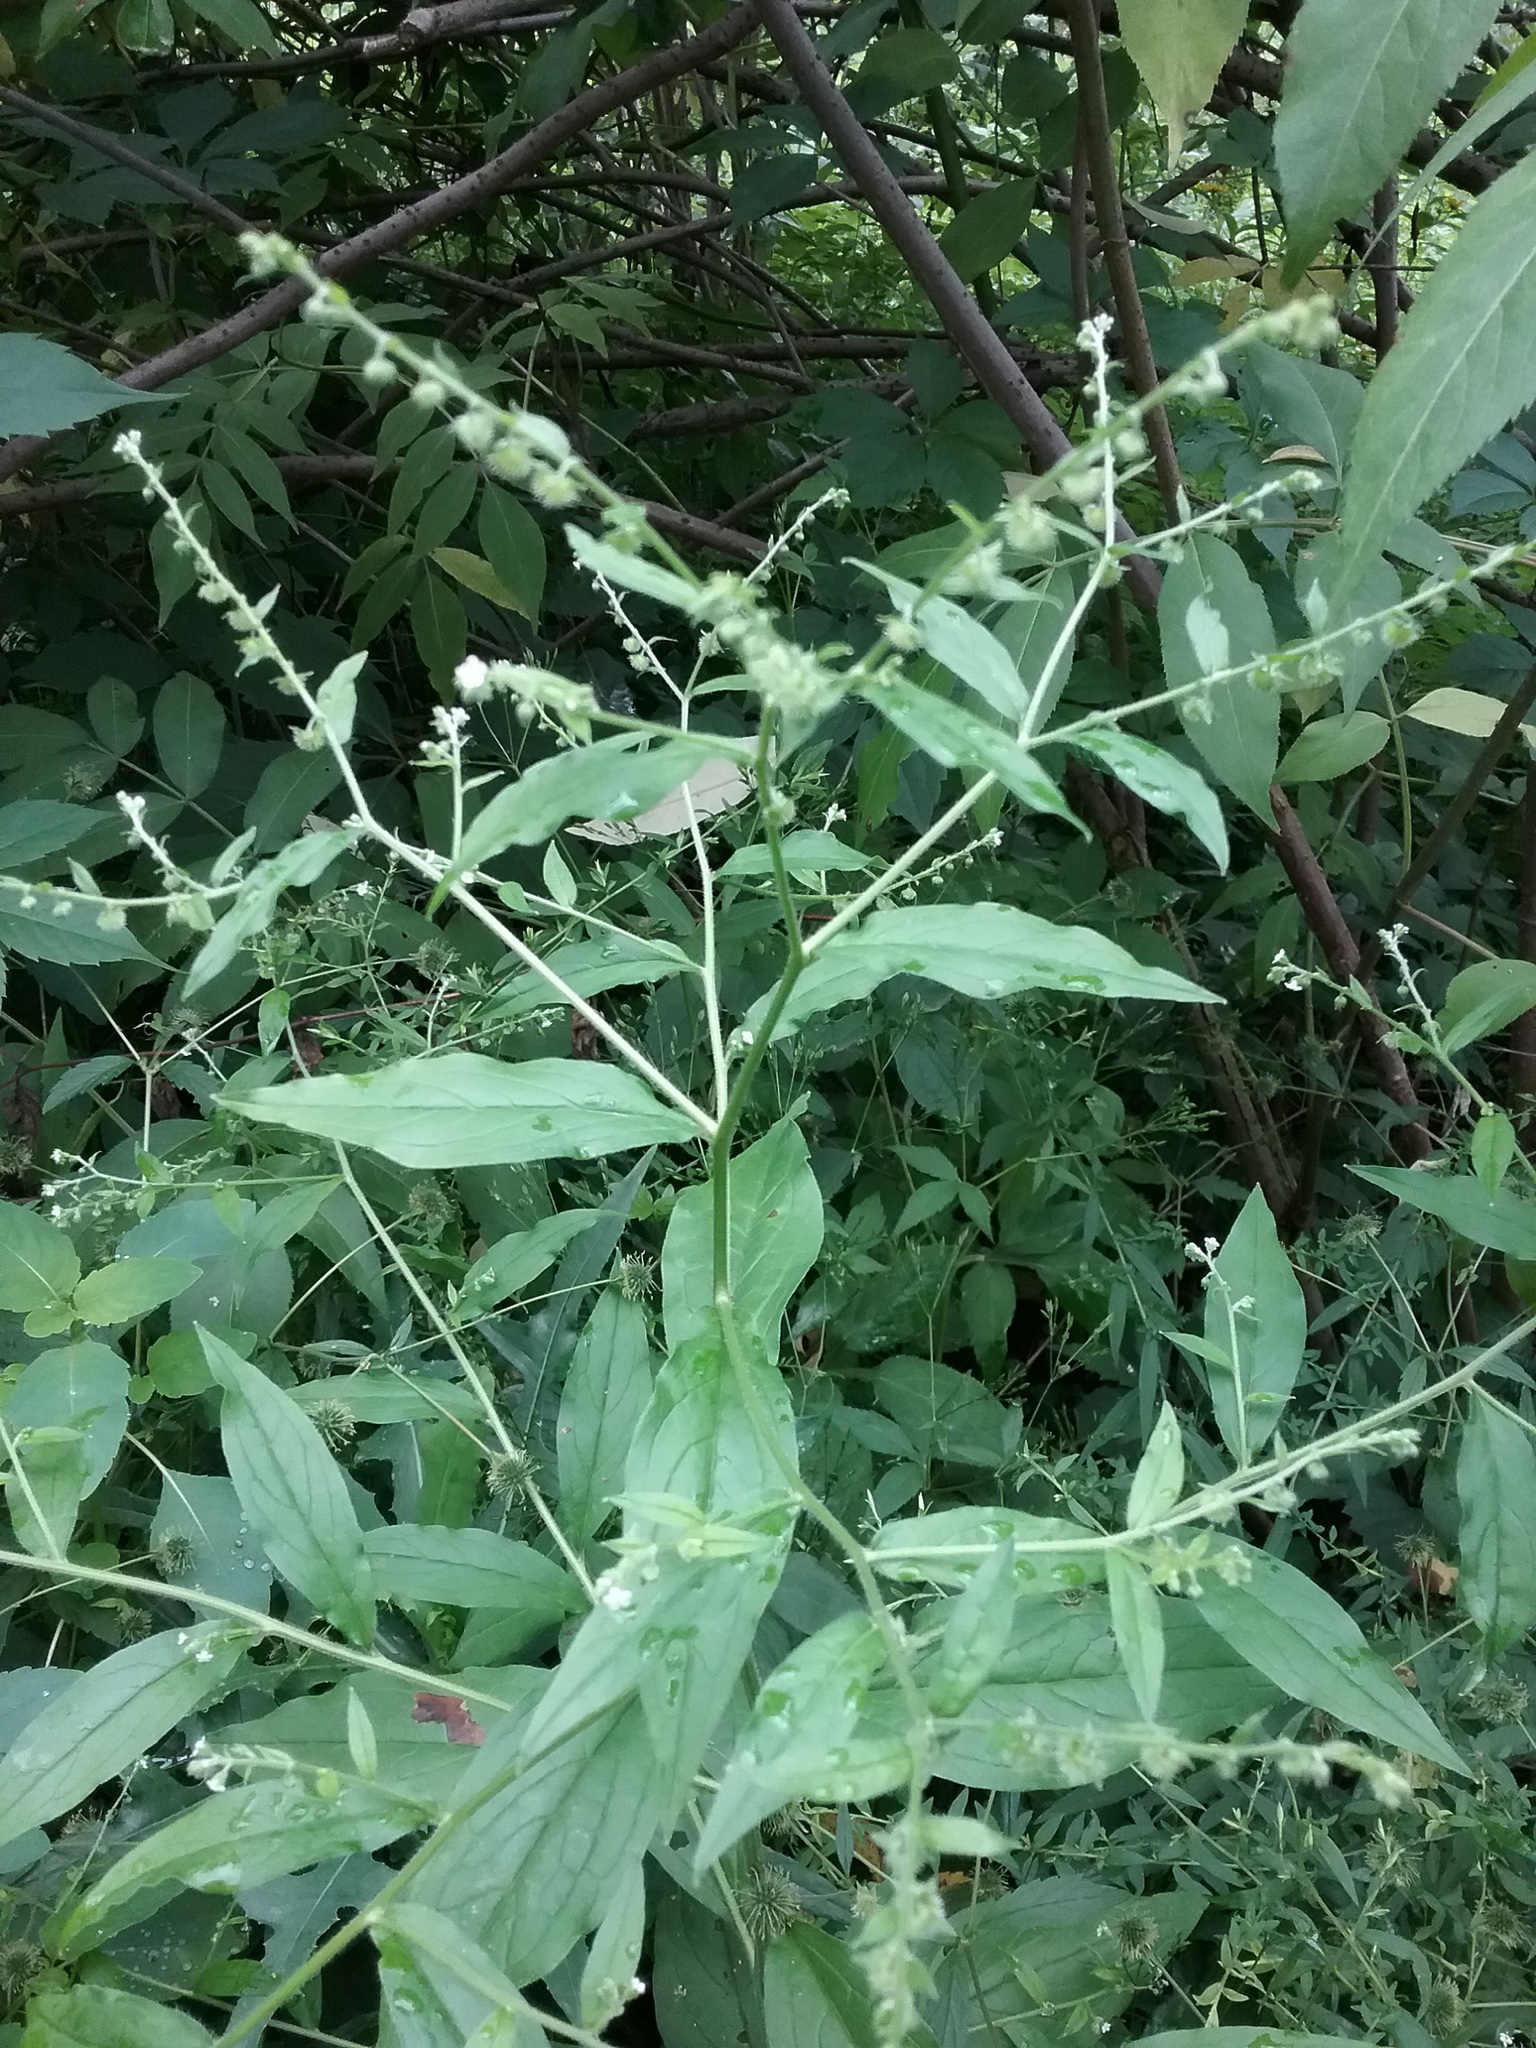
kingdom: Plantae
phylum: Tracheophyta
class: Magnoliopsida
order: Boraginales
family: Boraginaceae
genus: Hackelia
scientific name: Hackelia virginiana
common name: Beggar's-lice
